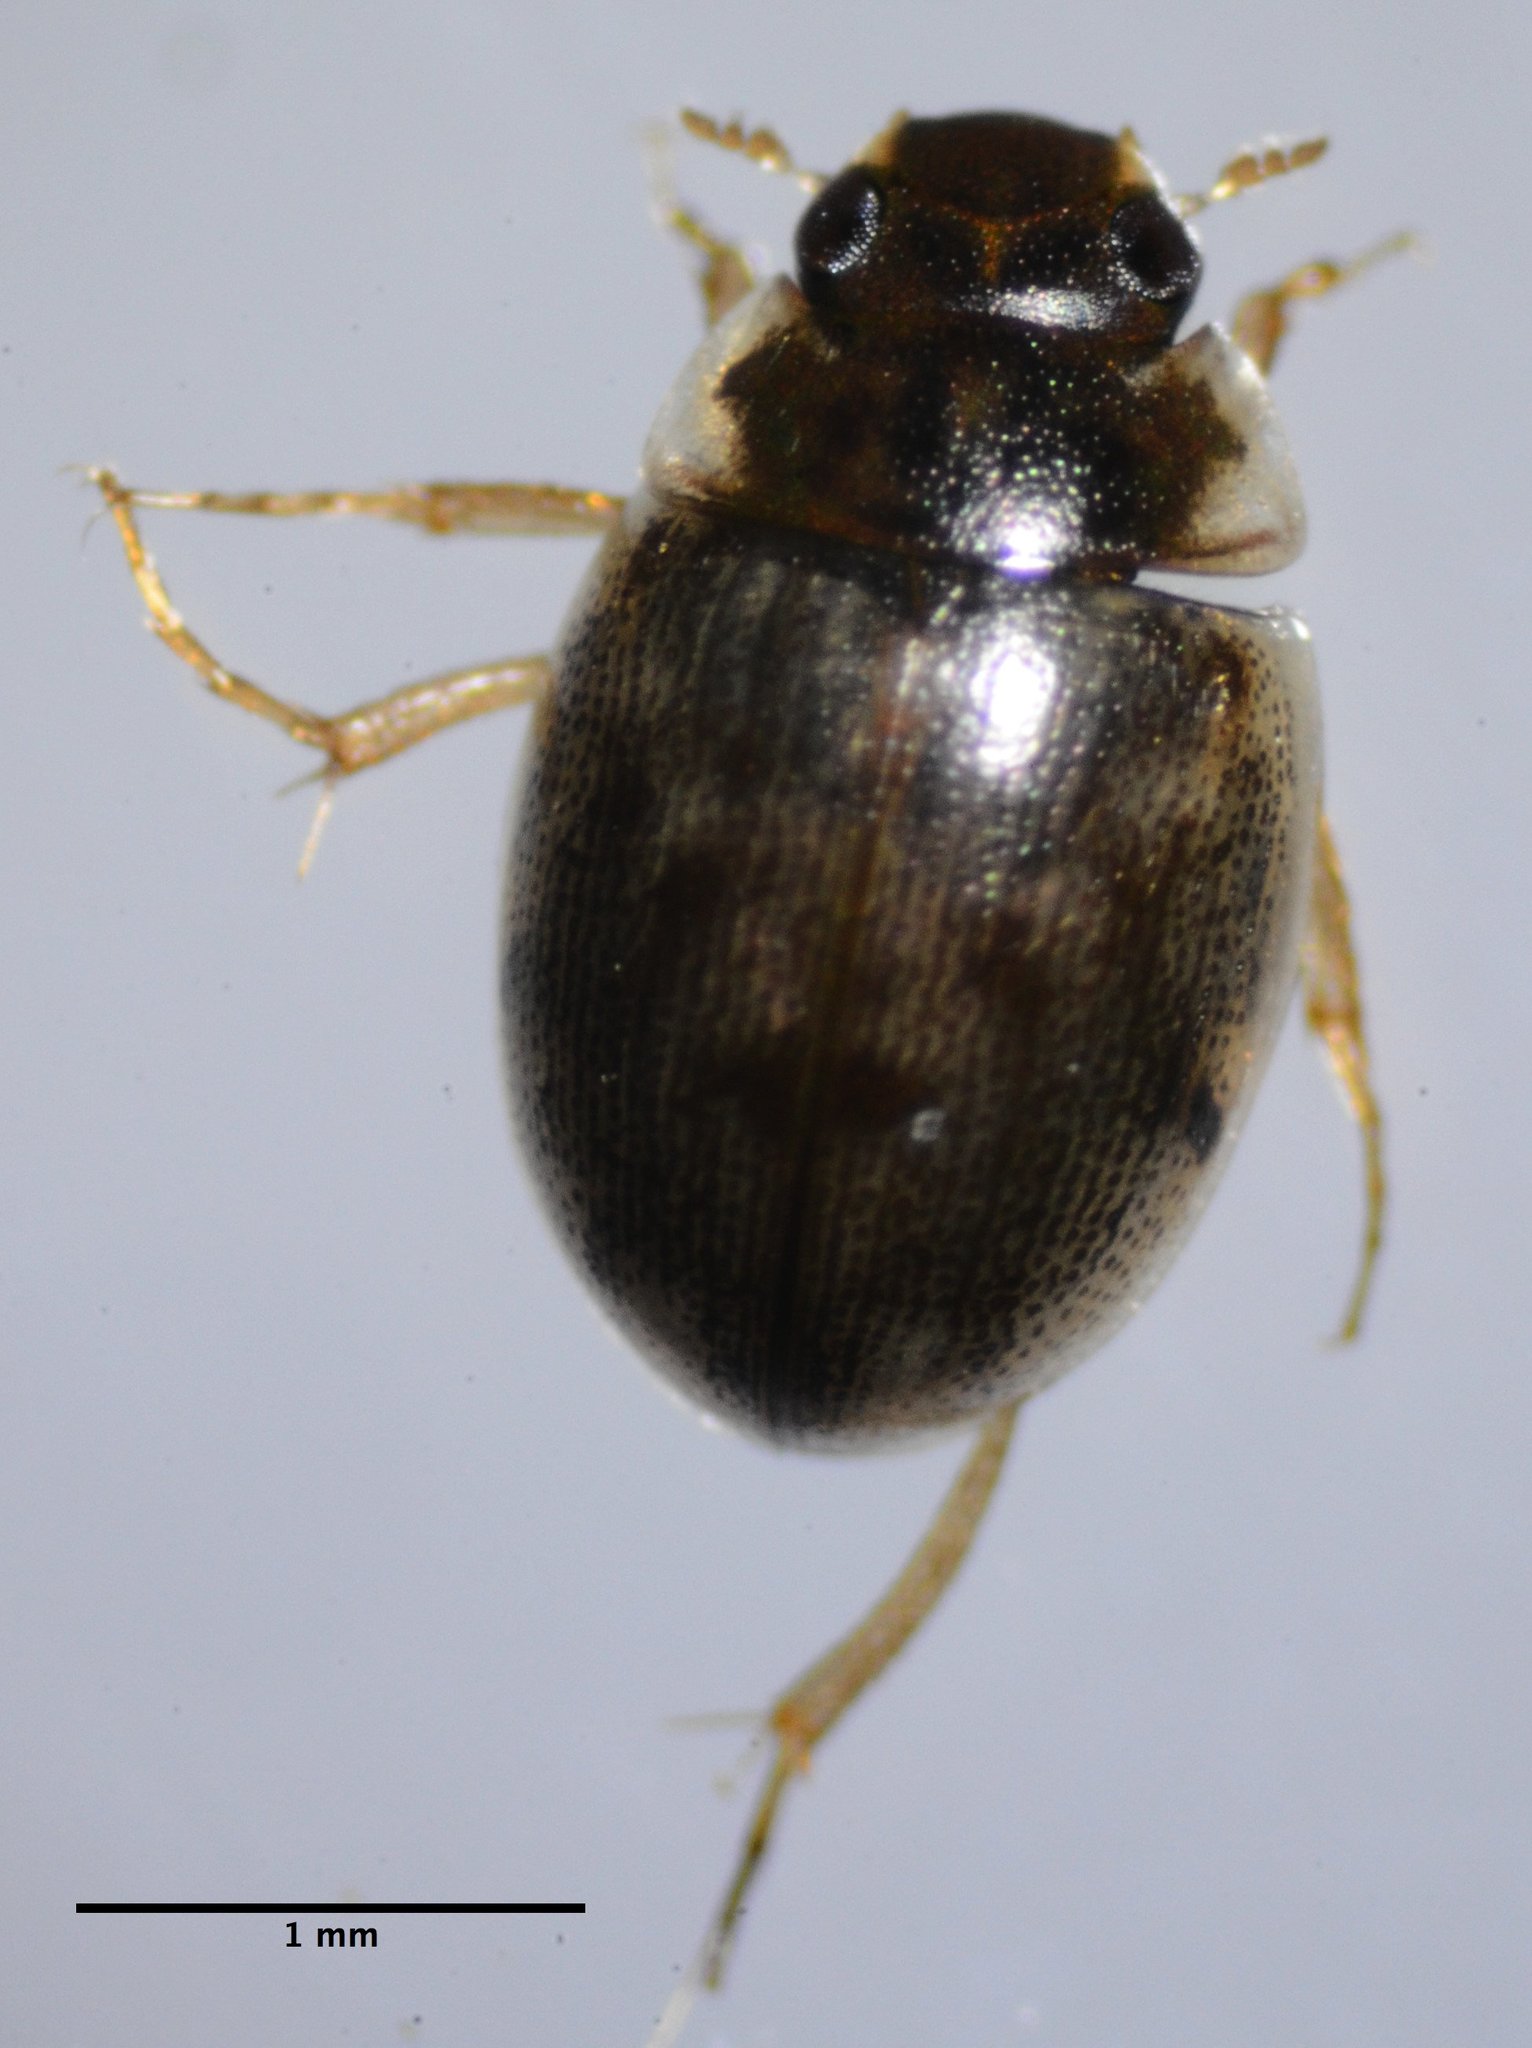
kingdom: Animalia
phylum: Arthropoda
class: Insecta
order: Coleoptera
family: Hydrophilidae
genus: Laccobius
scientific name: Laccobius
